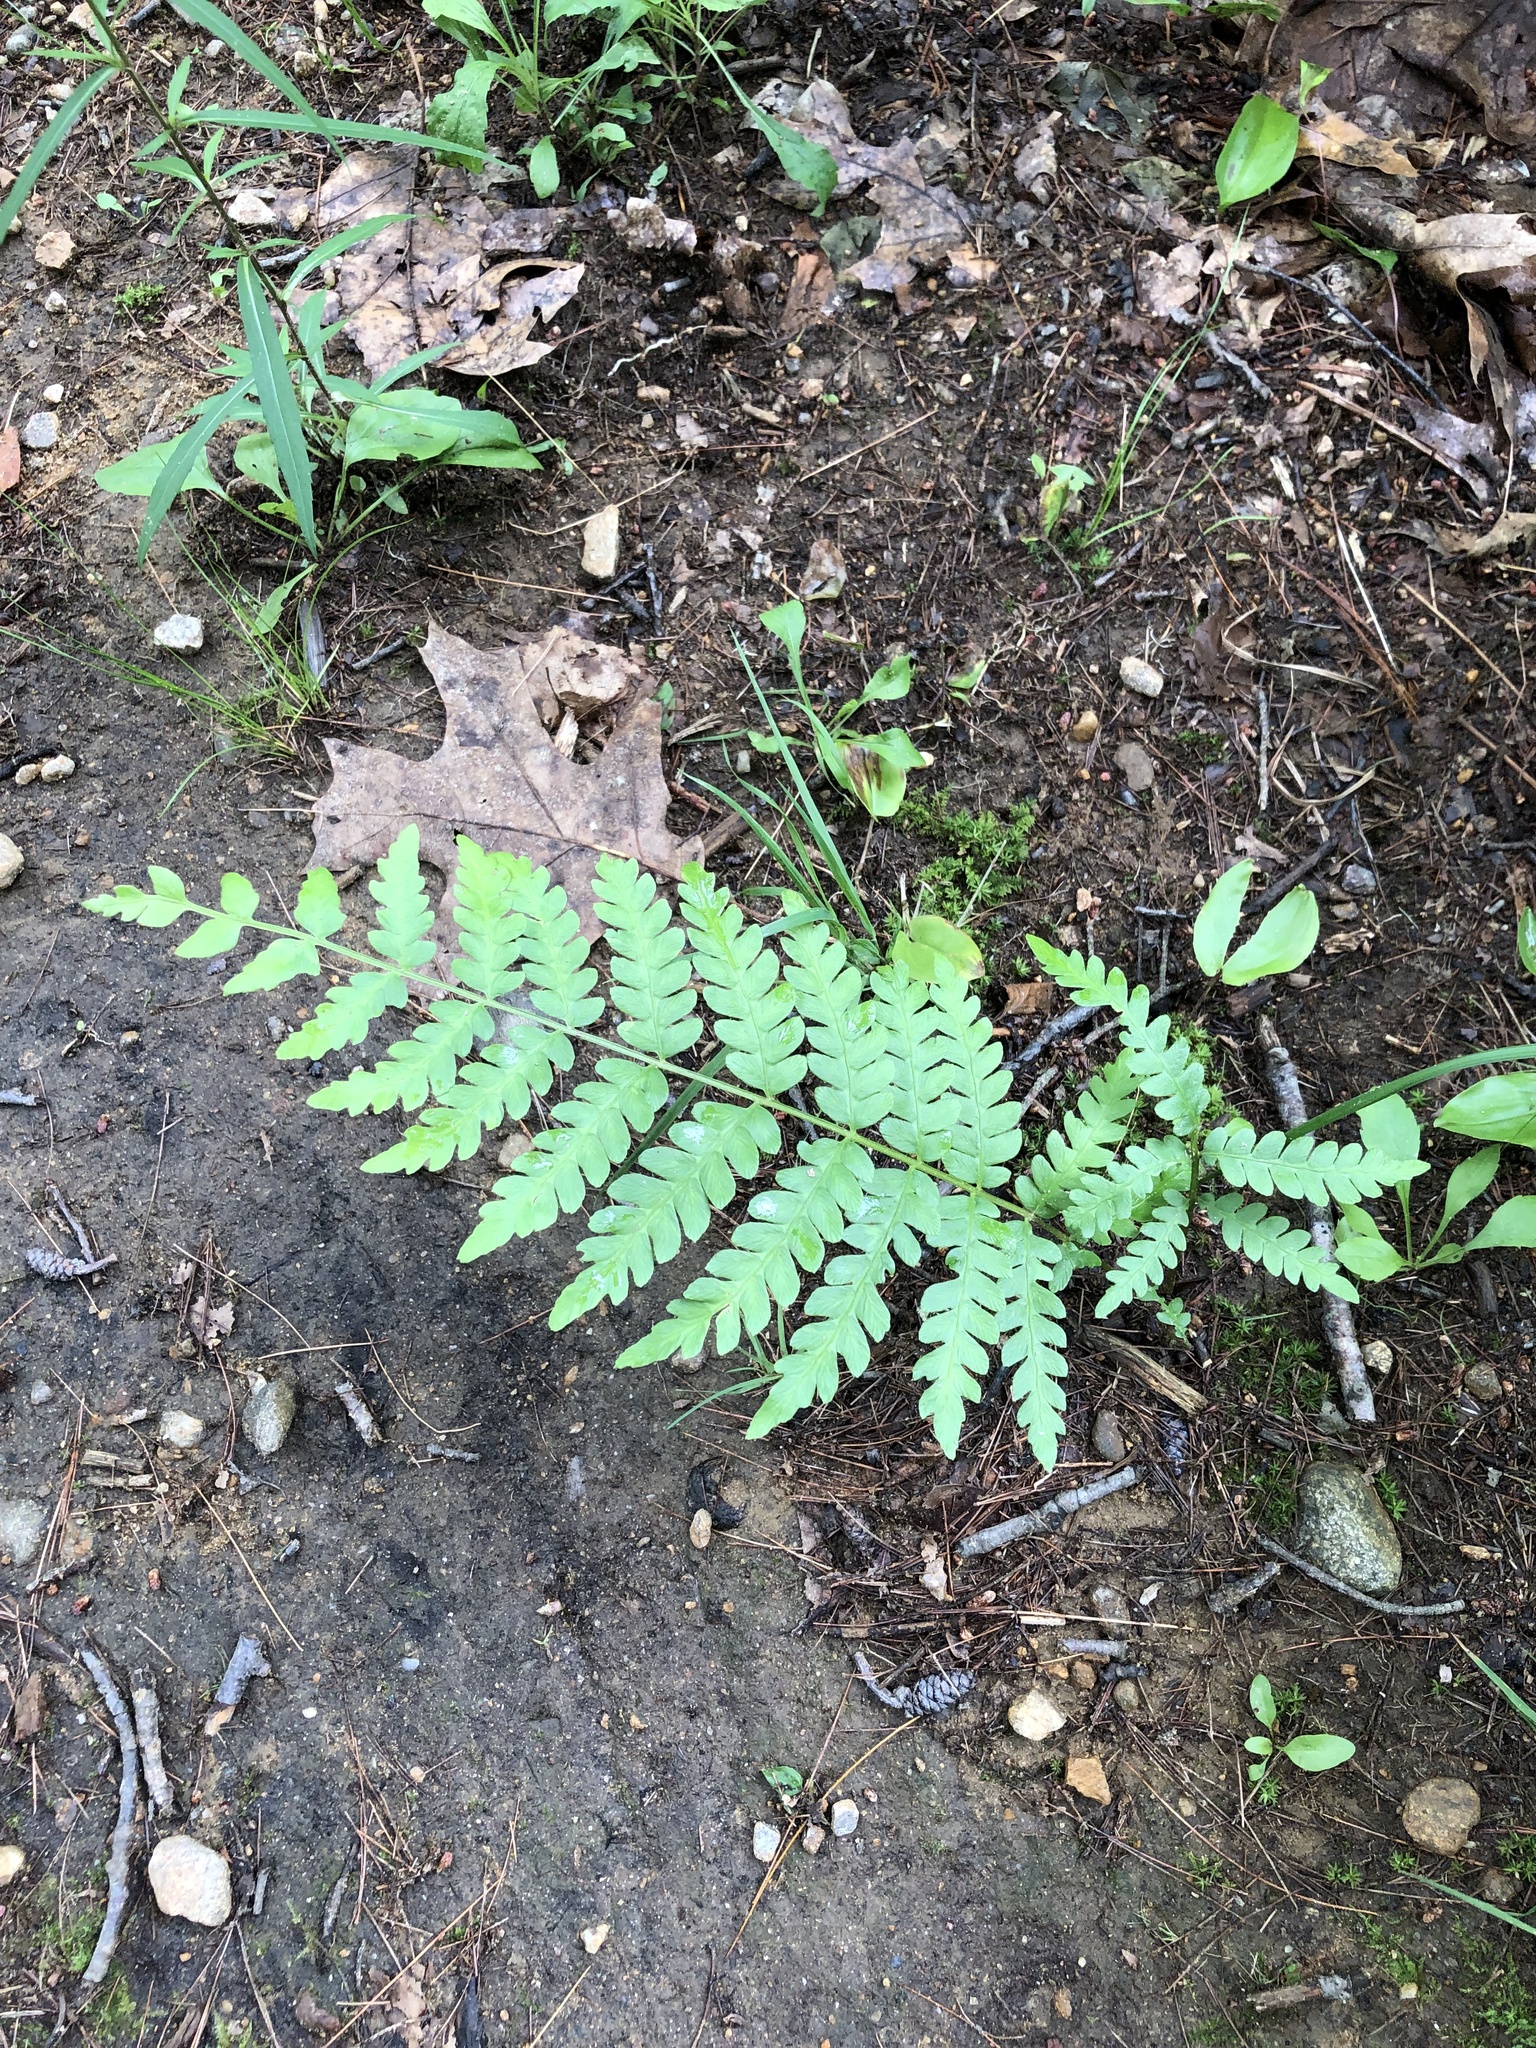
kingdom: Plantae
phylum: Tracheophyta
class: Polypodiopsida
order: Osmundales
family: Osmundaceae
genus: Osmundastrum
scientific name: Osmundastrum cinnamomeum
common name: Cinnamon fern
